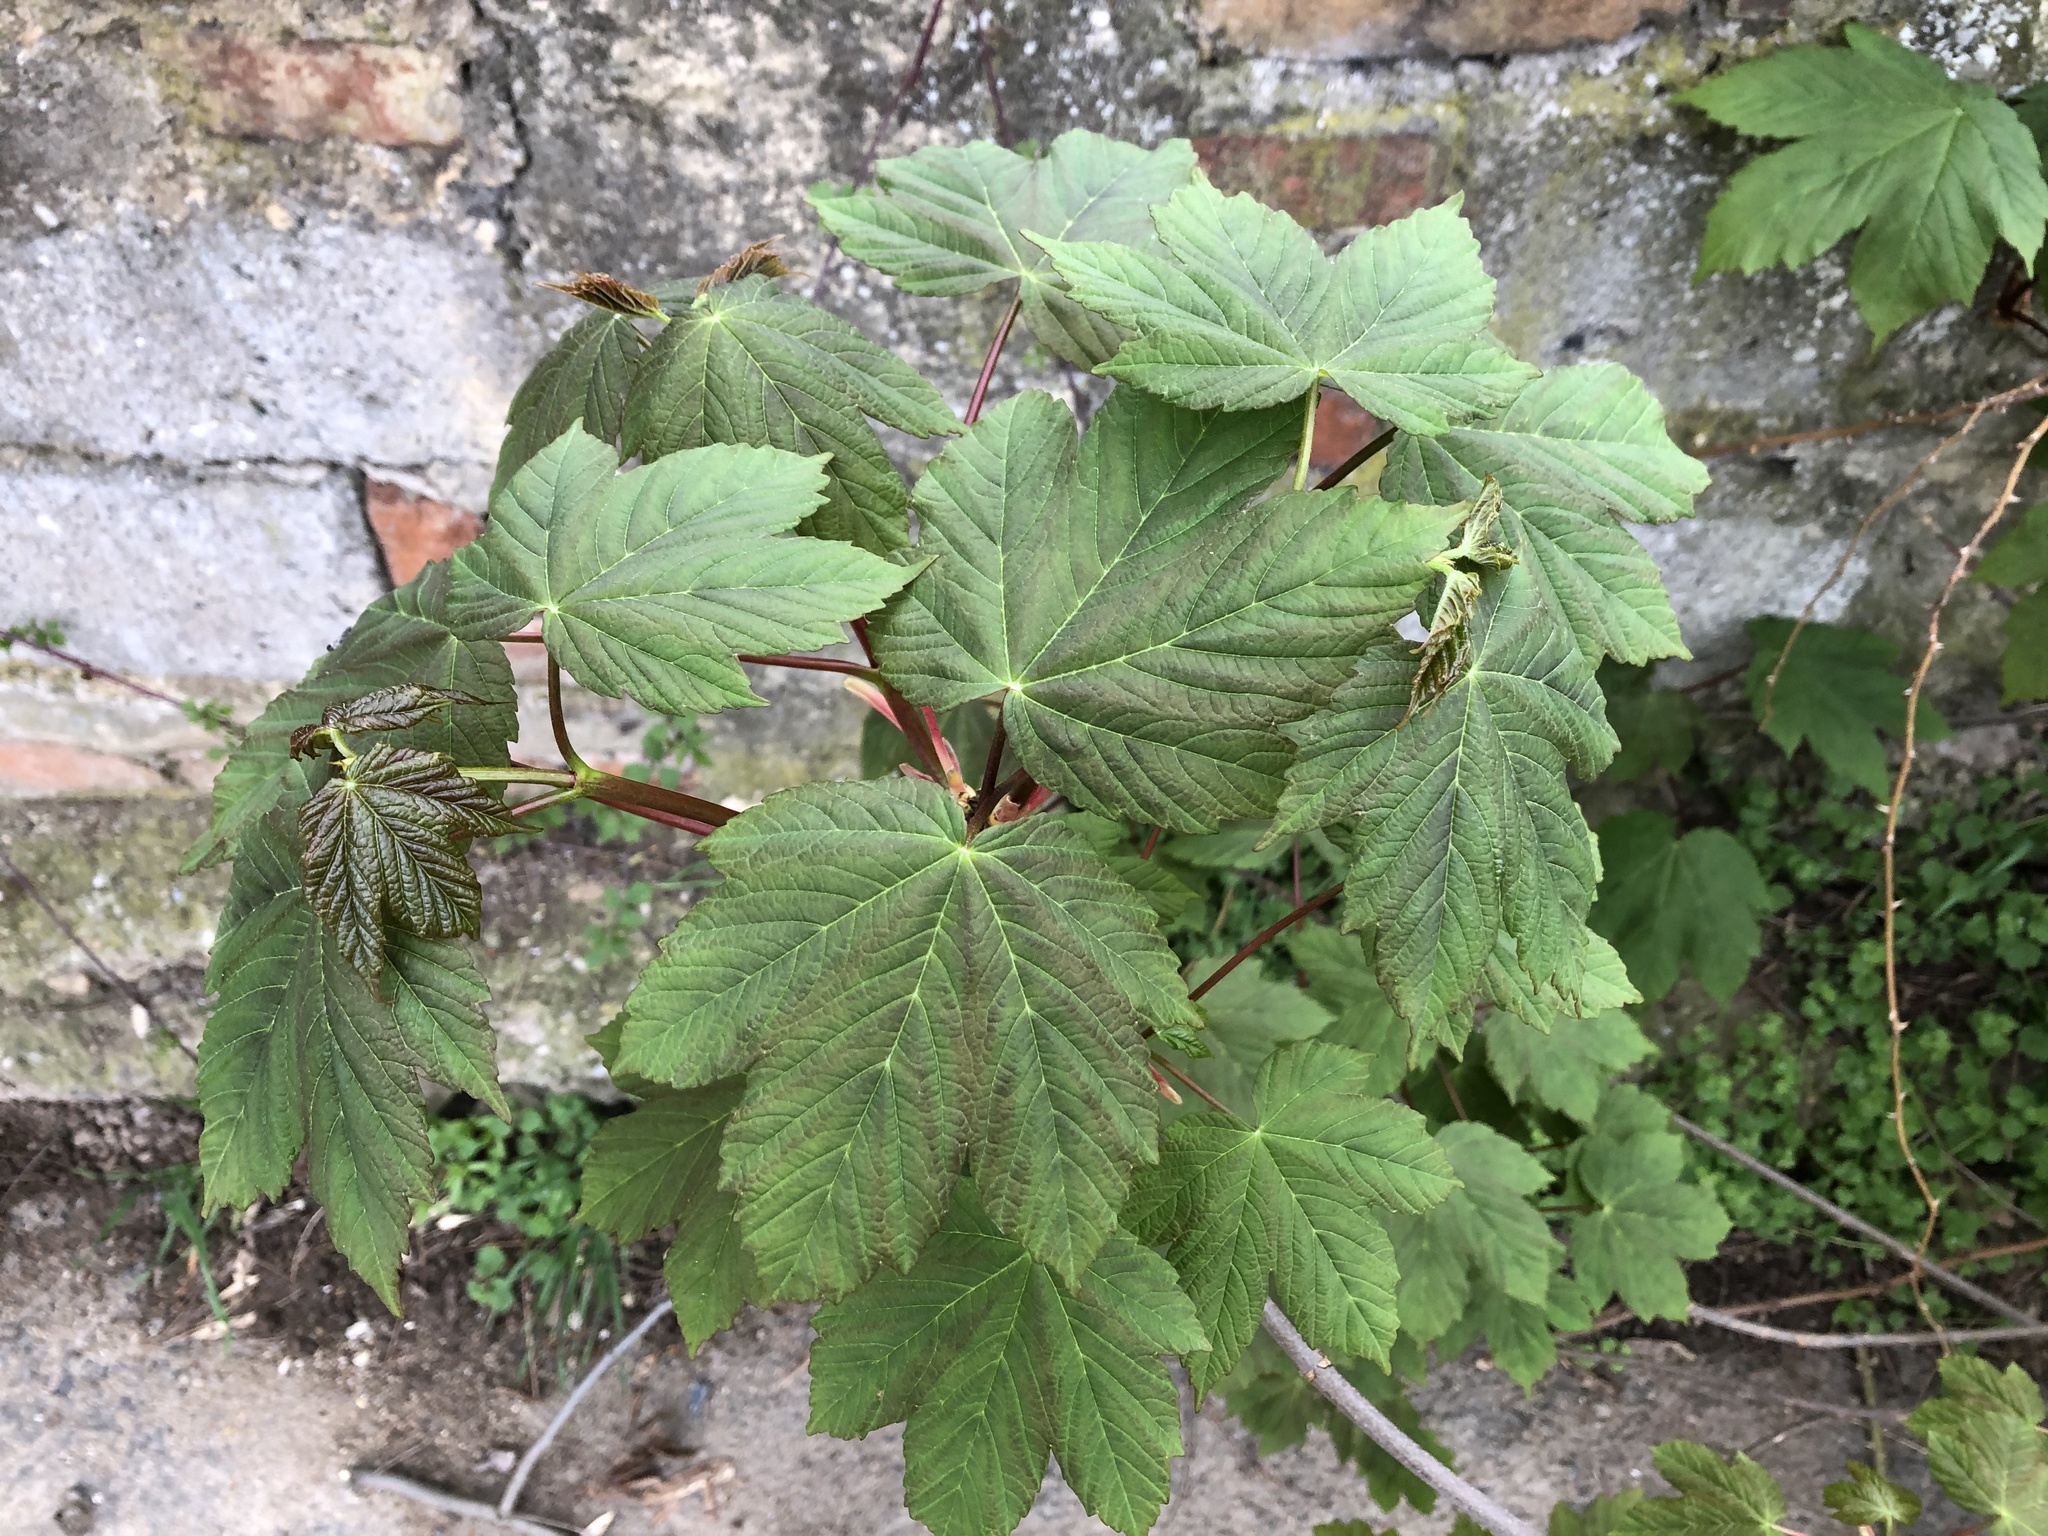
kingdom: Plantae
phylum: Tracheophyta
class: Magnoliopsida
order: Sapindales
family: Sapindaceae
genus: Acer
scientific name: Acer pseudoplatanus
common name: Sycamore
